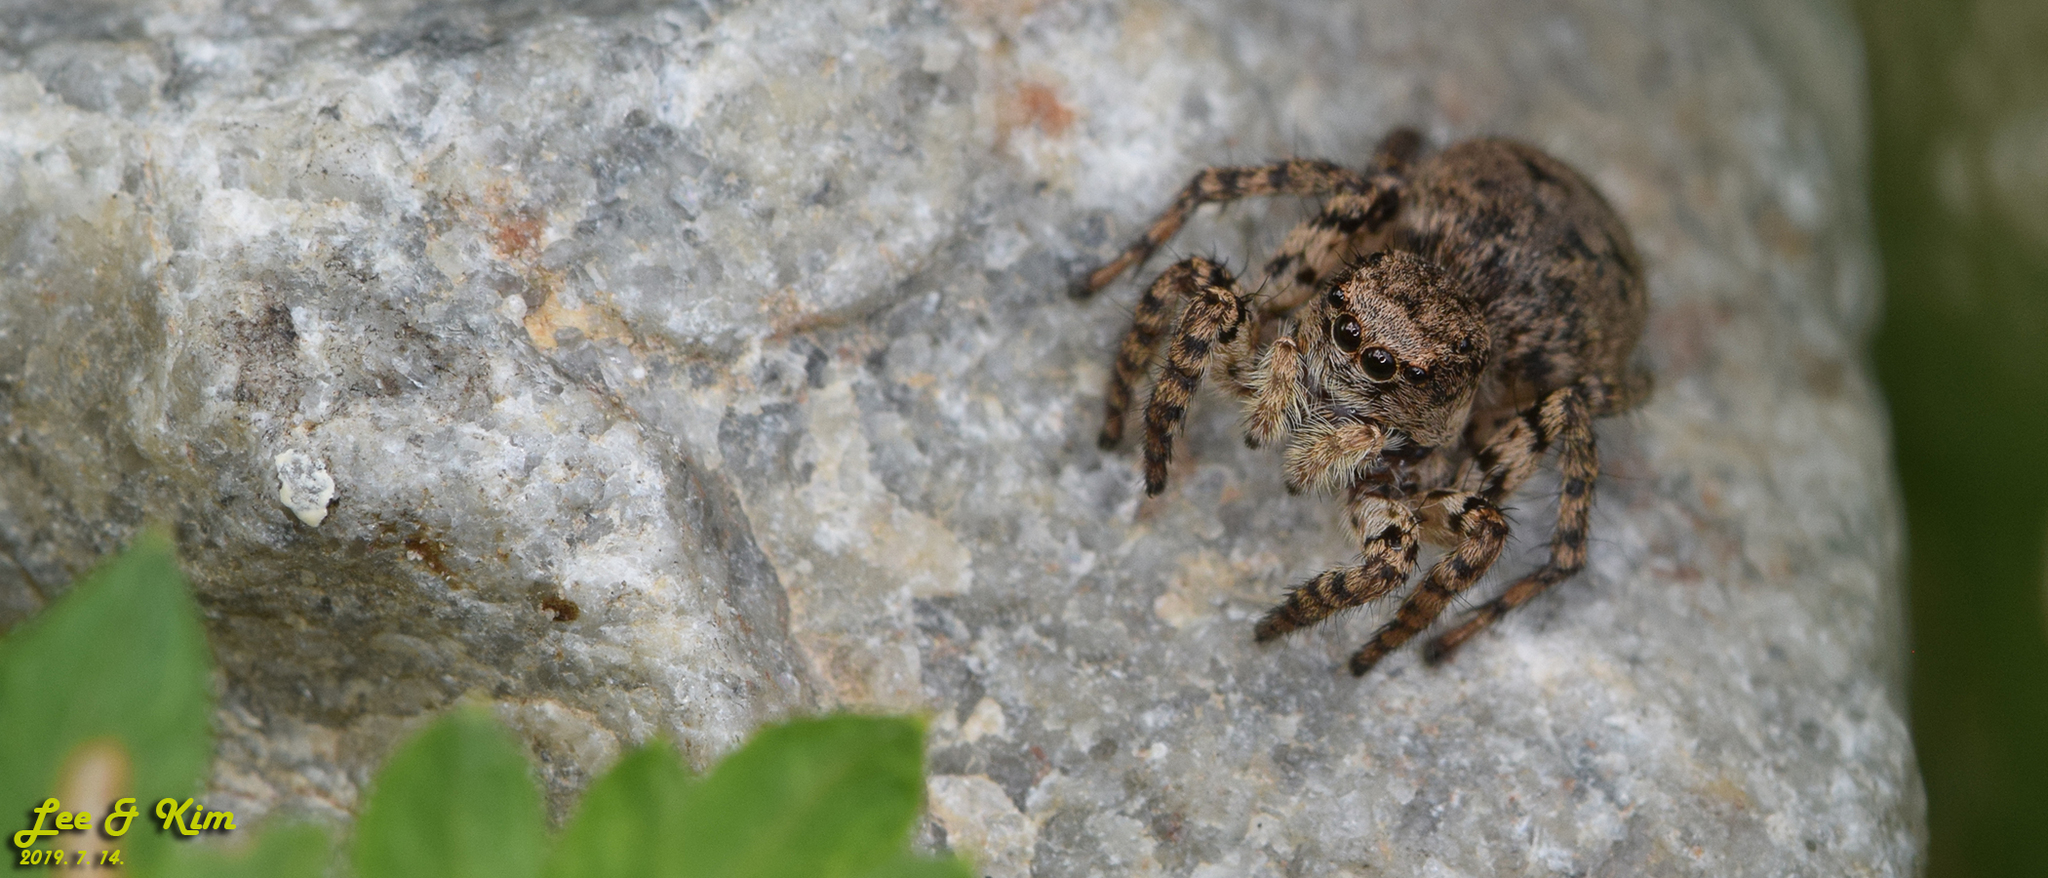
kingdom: Animalia
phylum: Arthropoda
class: Arachnida
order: Araneae
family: Salticidae
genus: Asianellus
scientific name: Asianellus festivus
